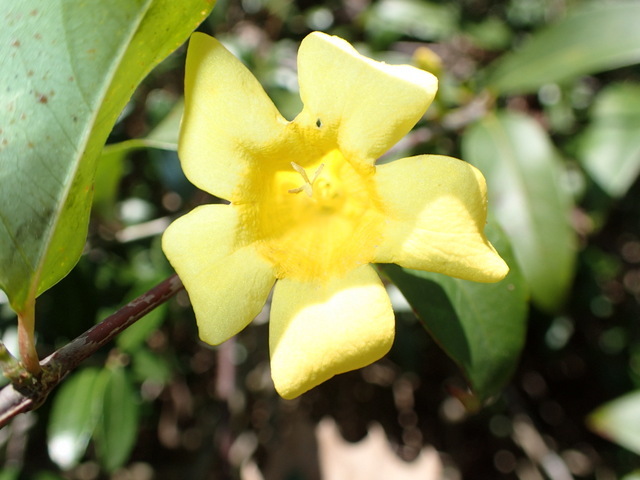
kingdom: Plantae
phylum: Tracheophyta
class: Magnoliopsida
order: Gentianales
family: Gelsemiaceae
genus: Gelsemium
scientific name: Gelsemium sempervirens
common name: Carolina-jasmine
